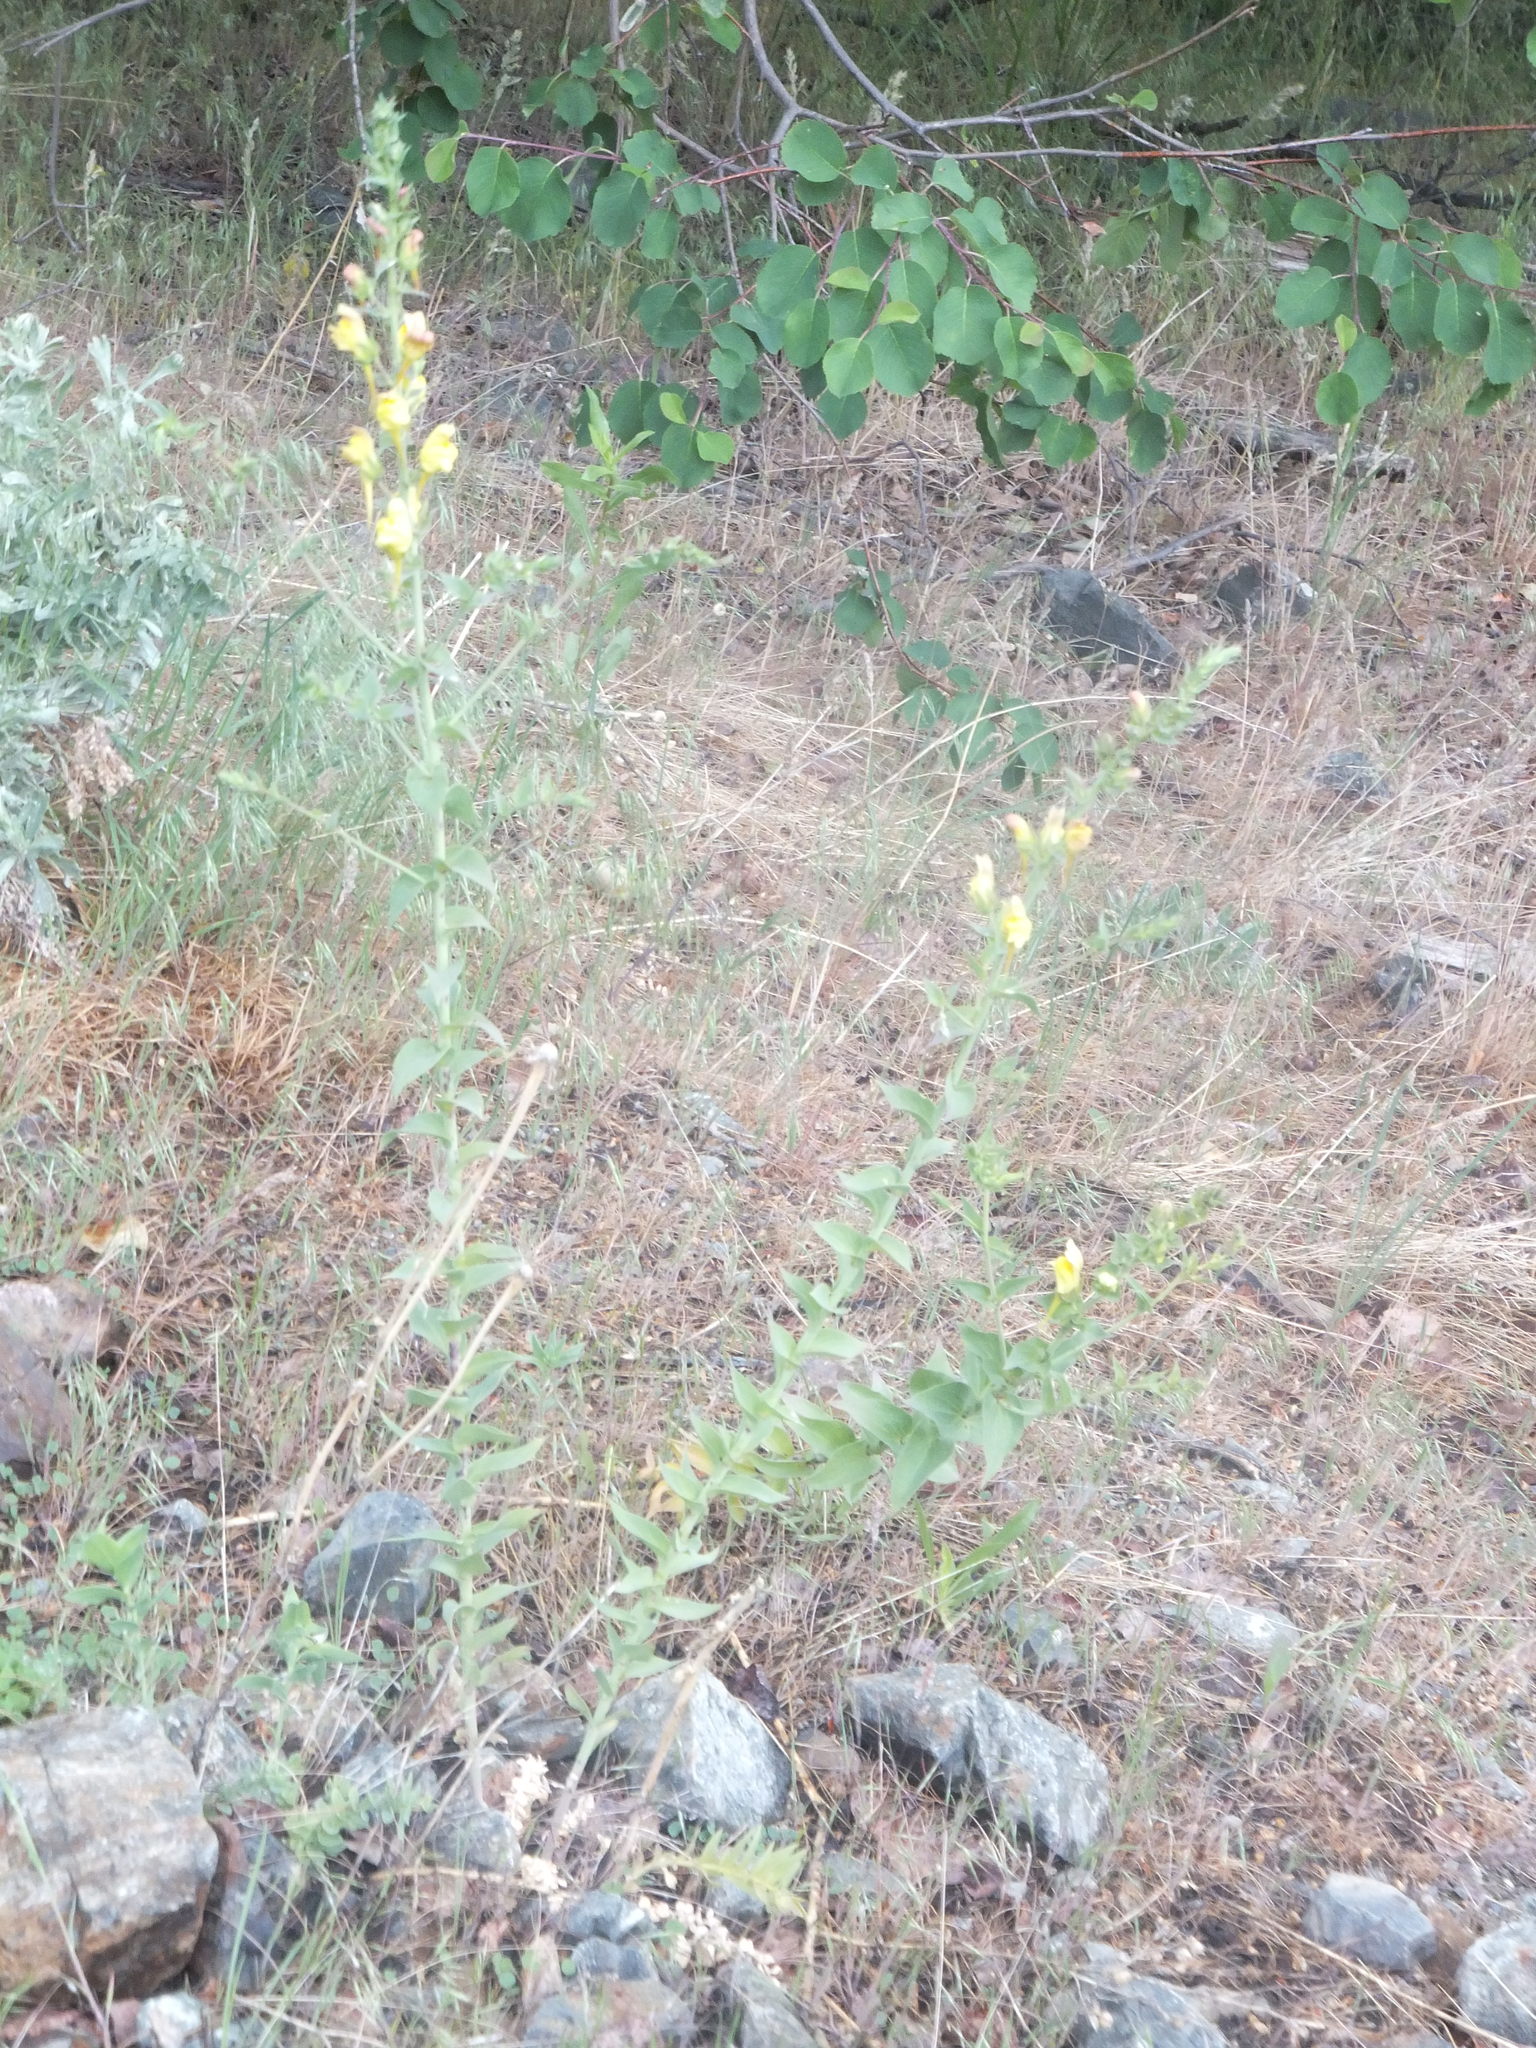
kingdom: Plantae
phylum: Tracheophyta
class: Magnoliopsida
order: Lamiales
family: Plantaginaceae
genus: Linaria
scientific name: Linaria dalmatica
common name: Dalmatian toadflax
